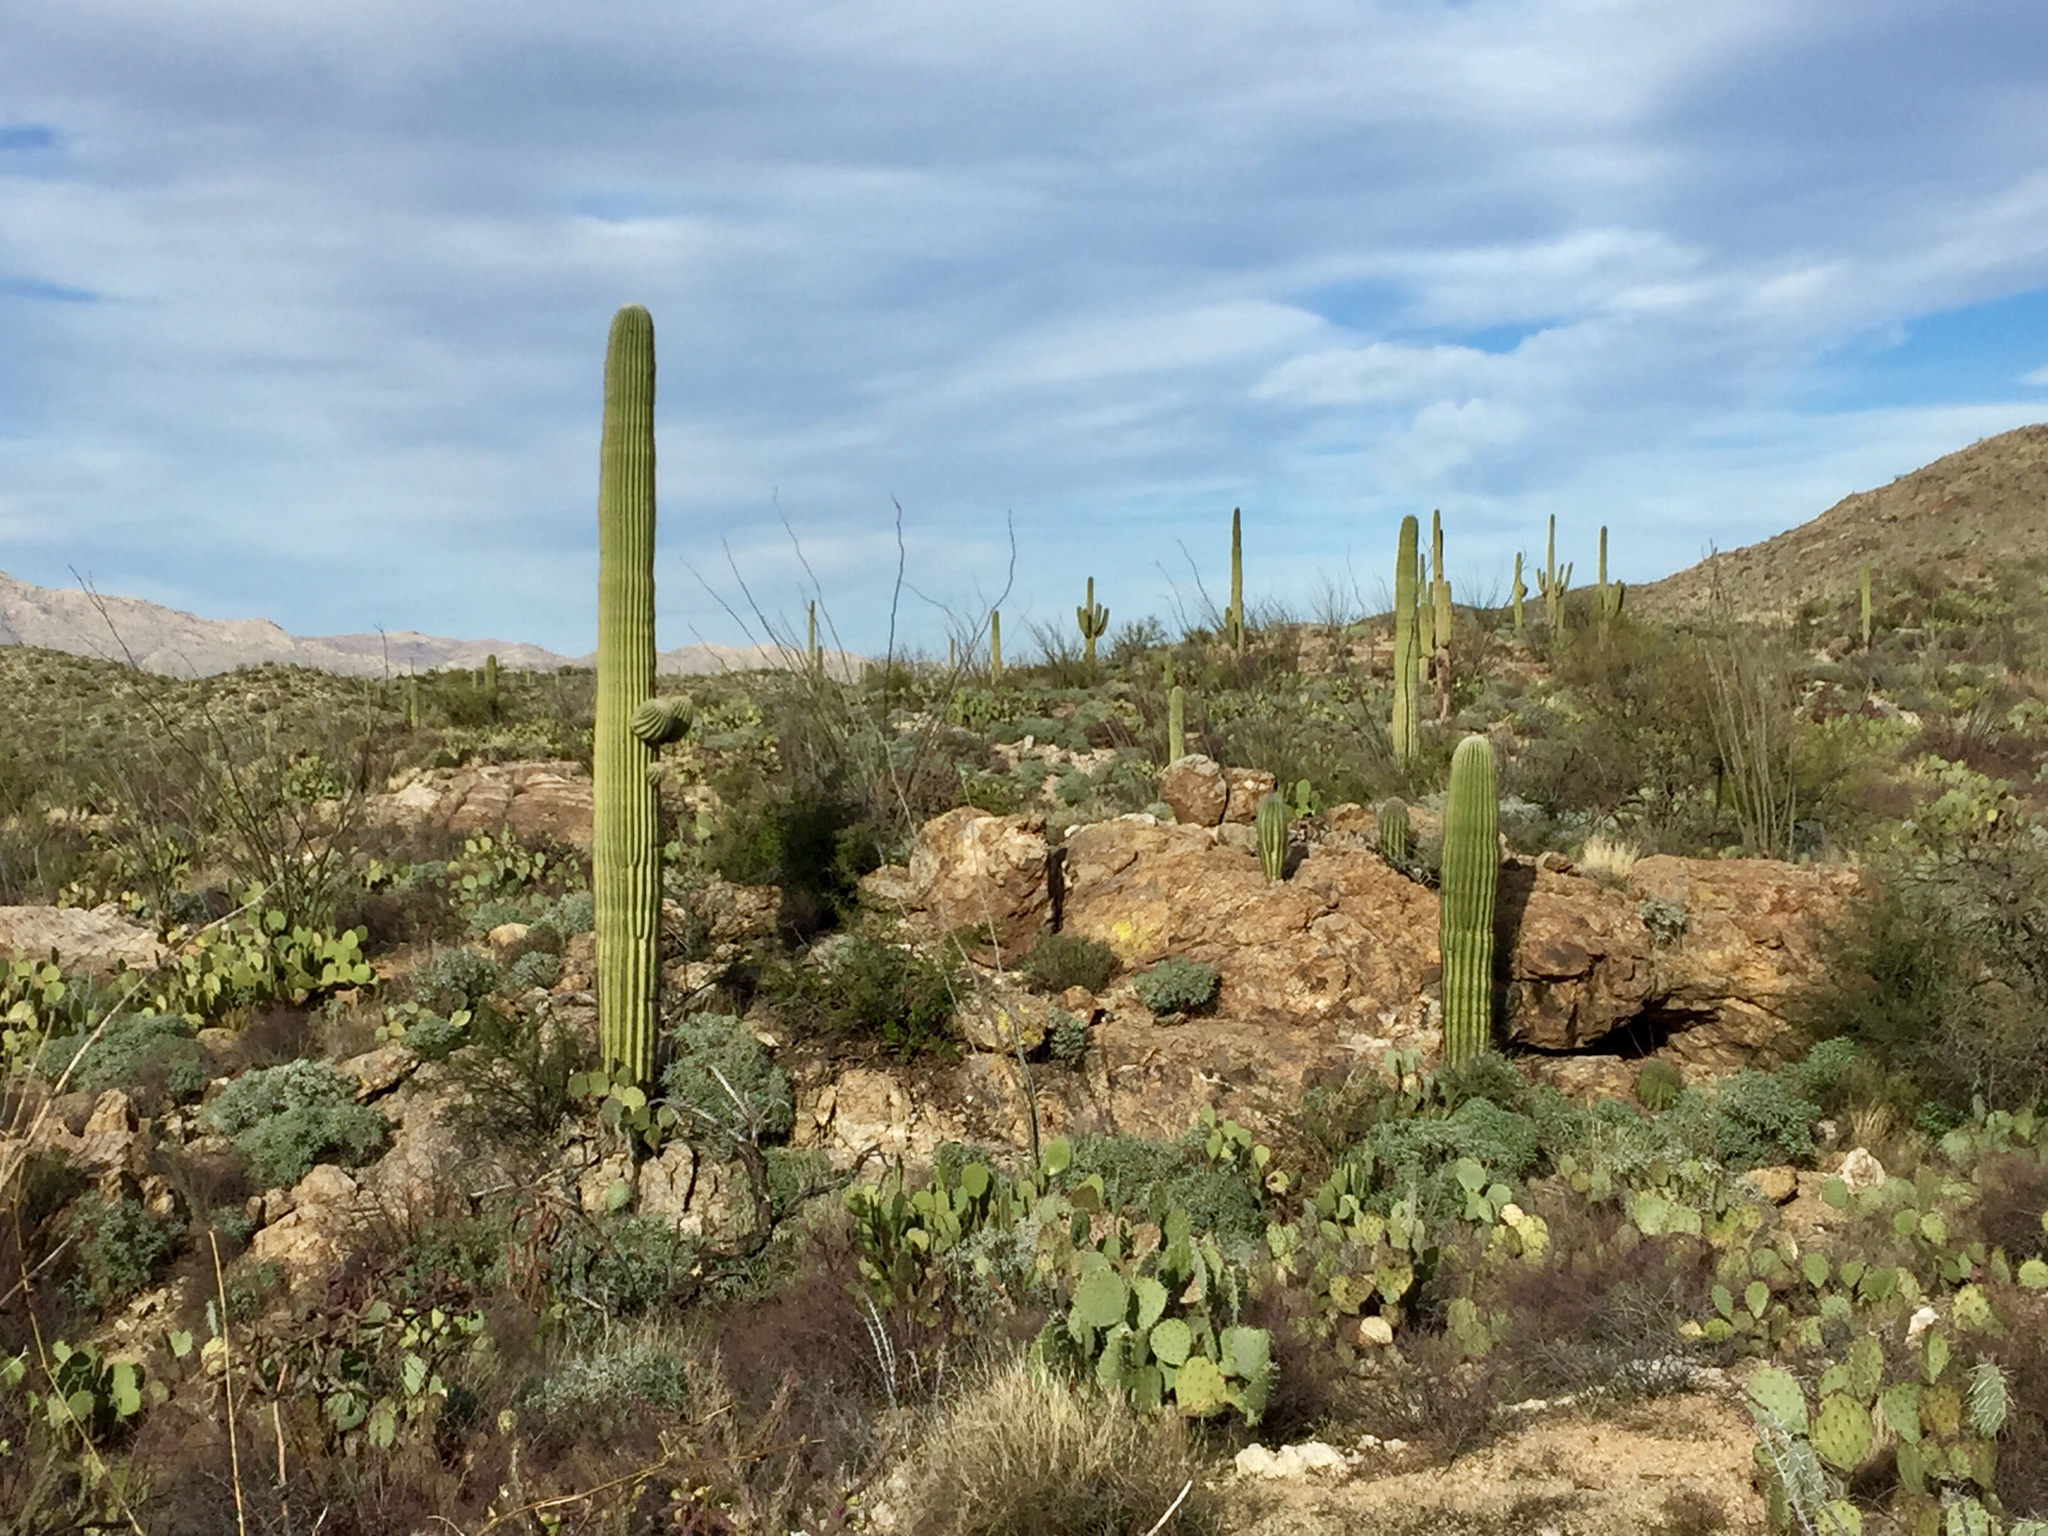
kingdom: Plantae
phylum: Tracheophyta
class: Magnoliopsida
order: Caryophyllales
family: Cactaceae
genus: Carnegiea
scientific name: Carnegiea gigantea
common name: Saguaro
